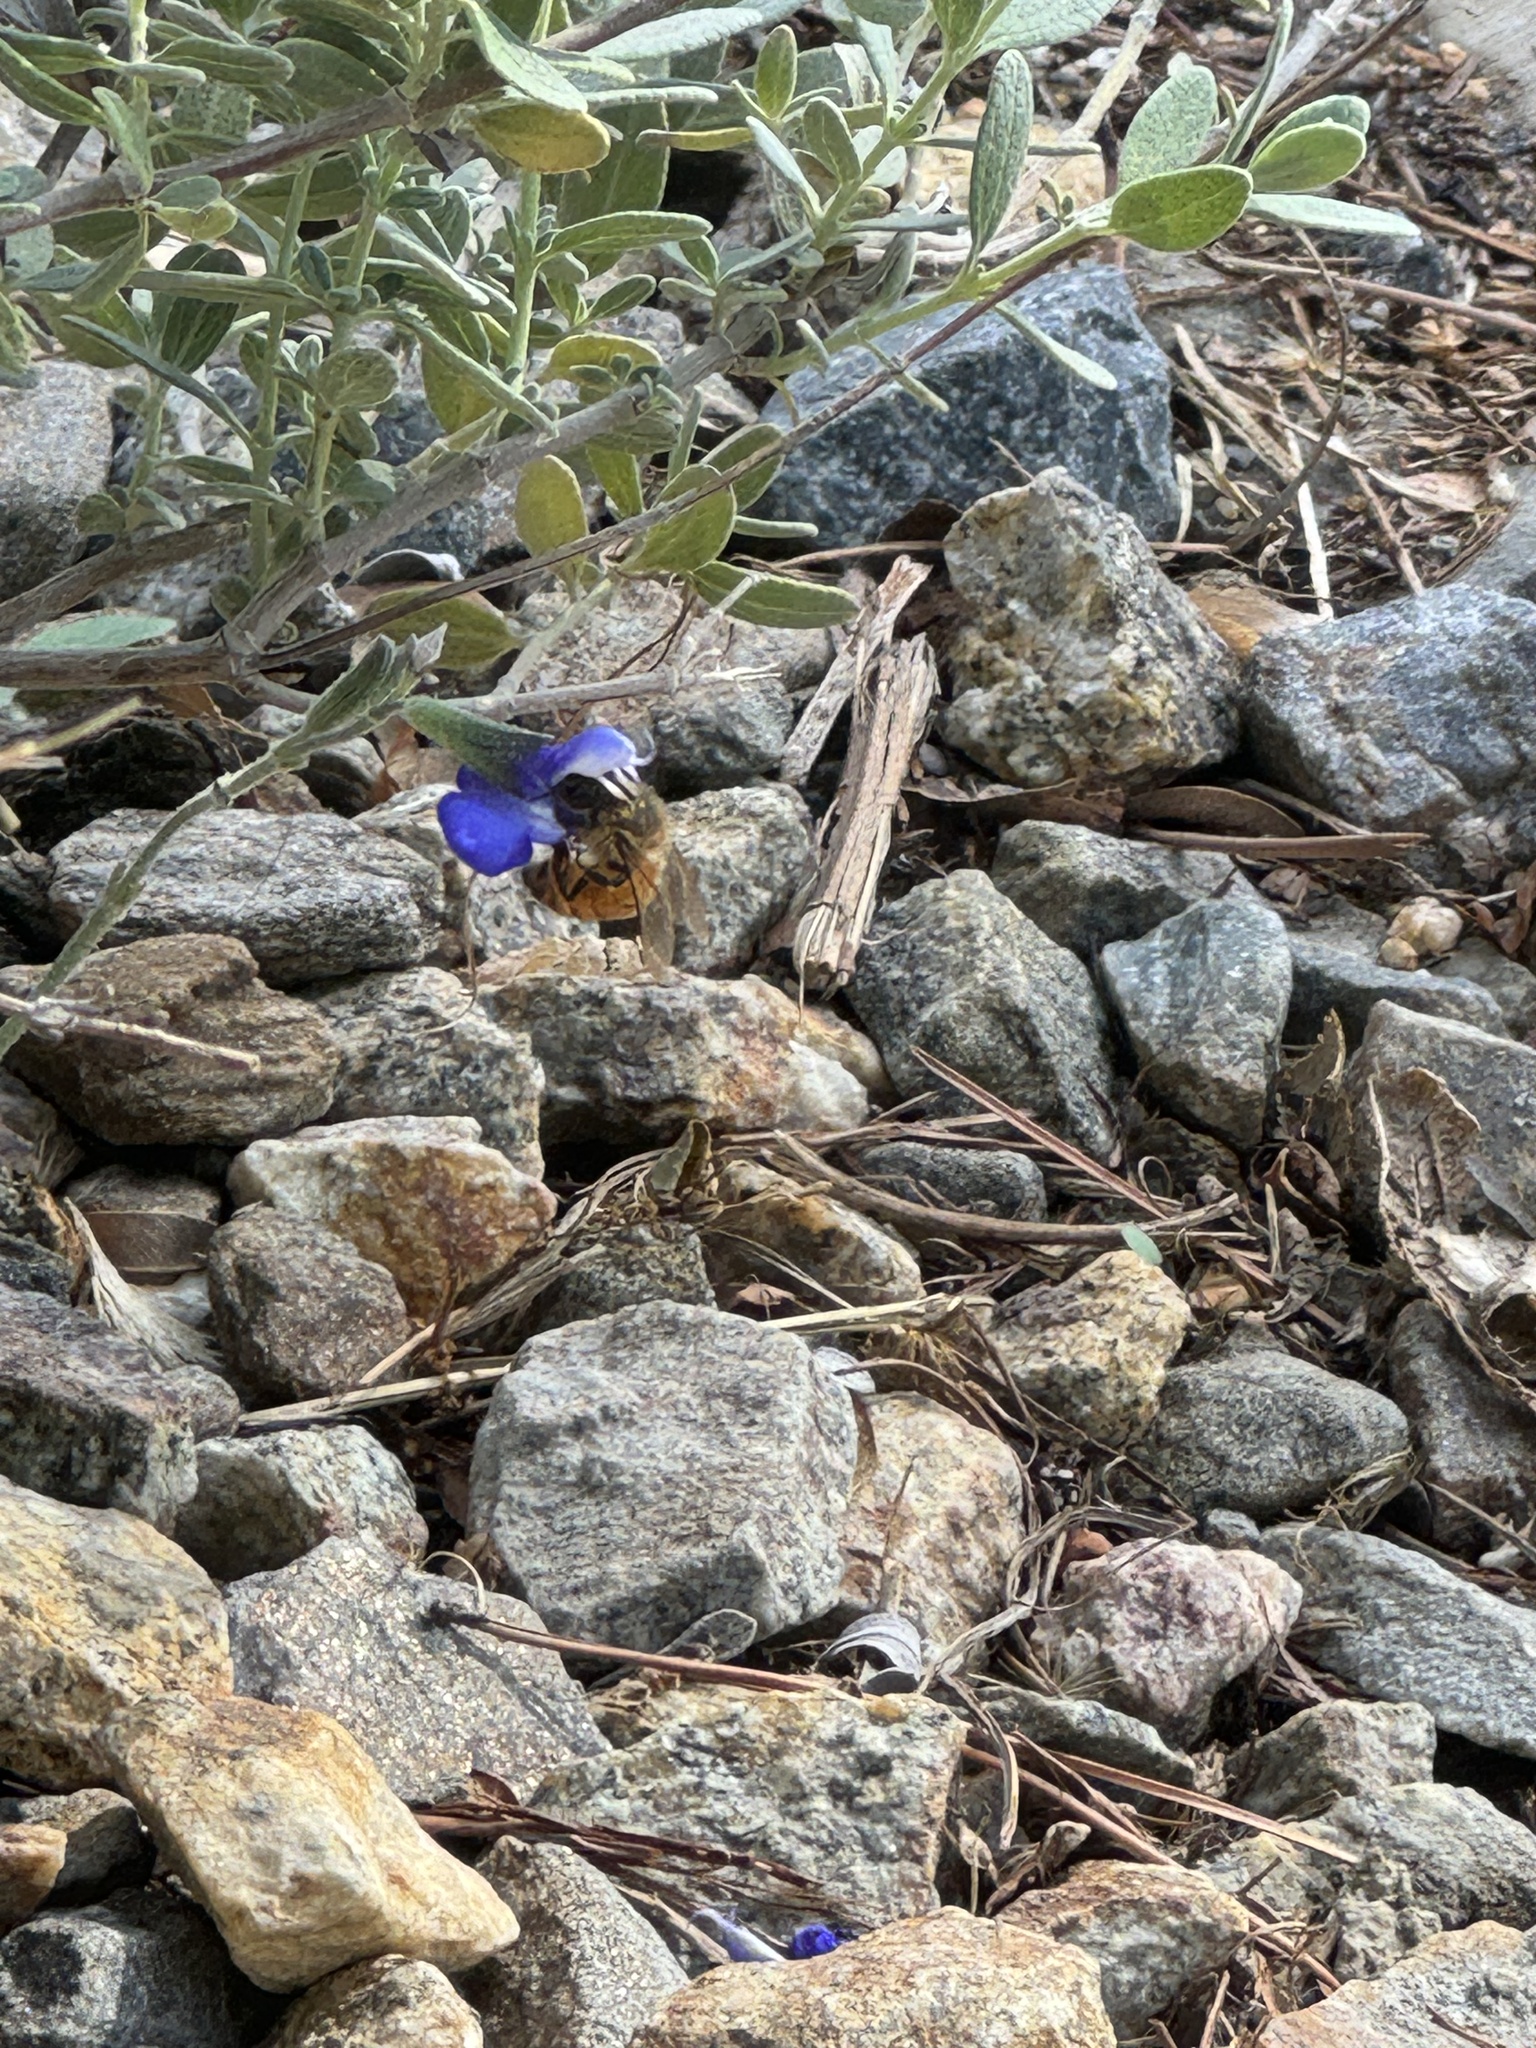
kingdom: Animalia
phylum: Arthropoda
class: Insecta
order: Hymenoptera
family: Apidae
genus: Apis
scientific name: Apis mellifera
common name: Honey bee
